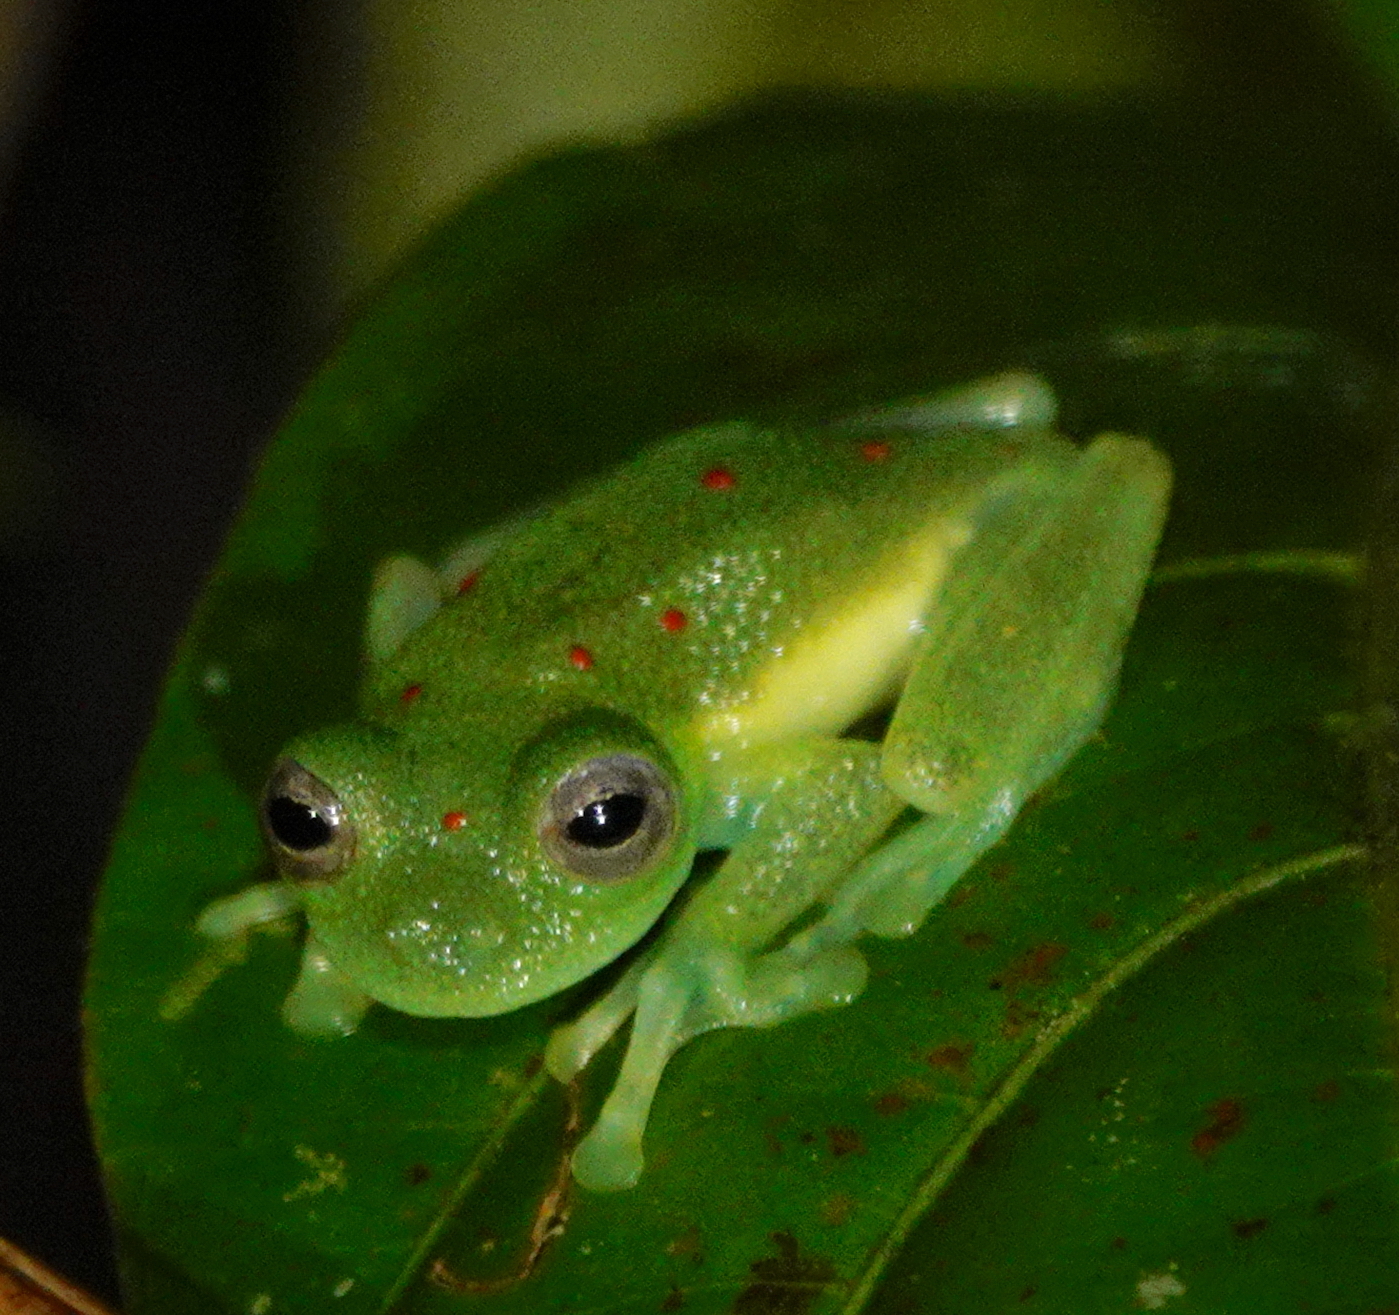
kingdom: Animalia
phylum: Chordata
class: Amphibia
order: Anura
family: Centrolenidae
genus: Nymphargus
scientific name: Nymphargus grandisonae
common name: Rana de cristal sarampiona
